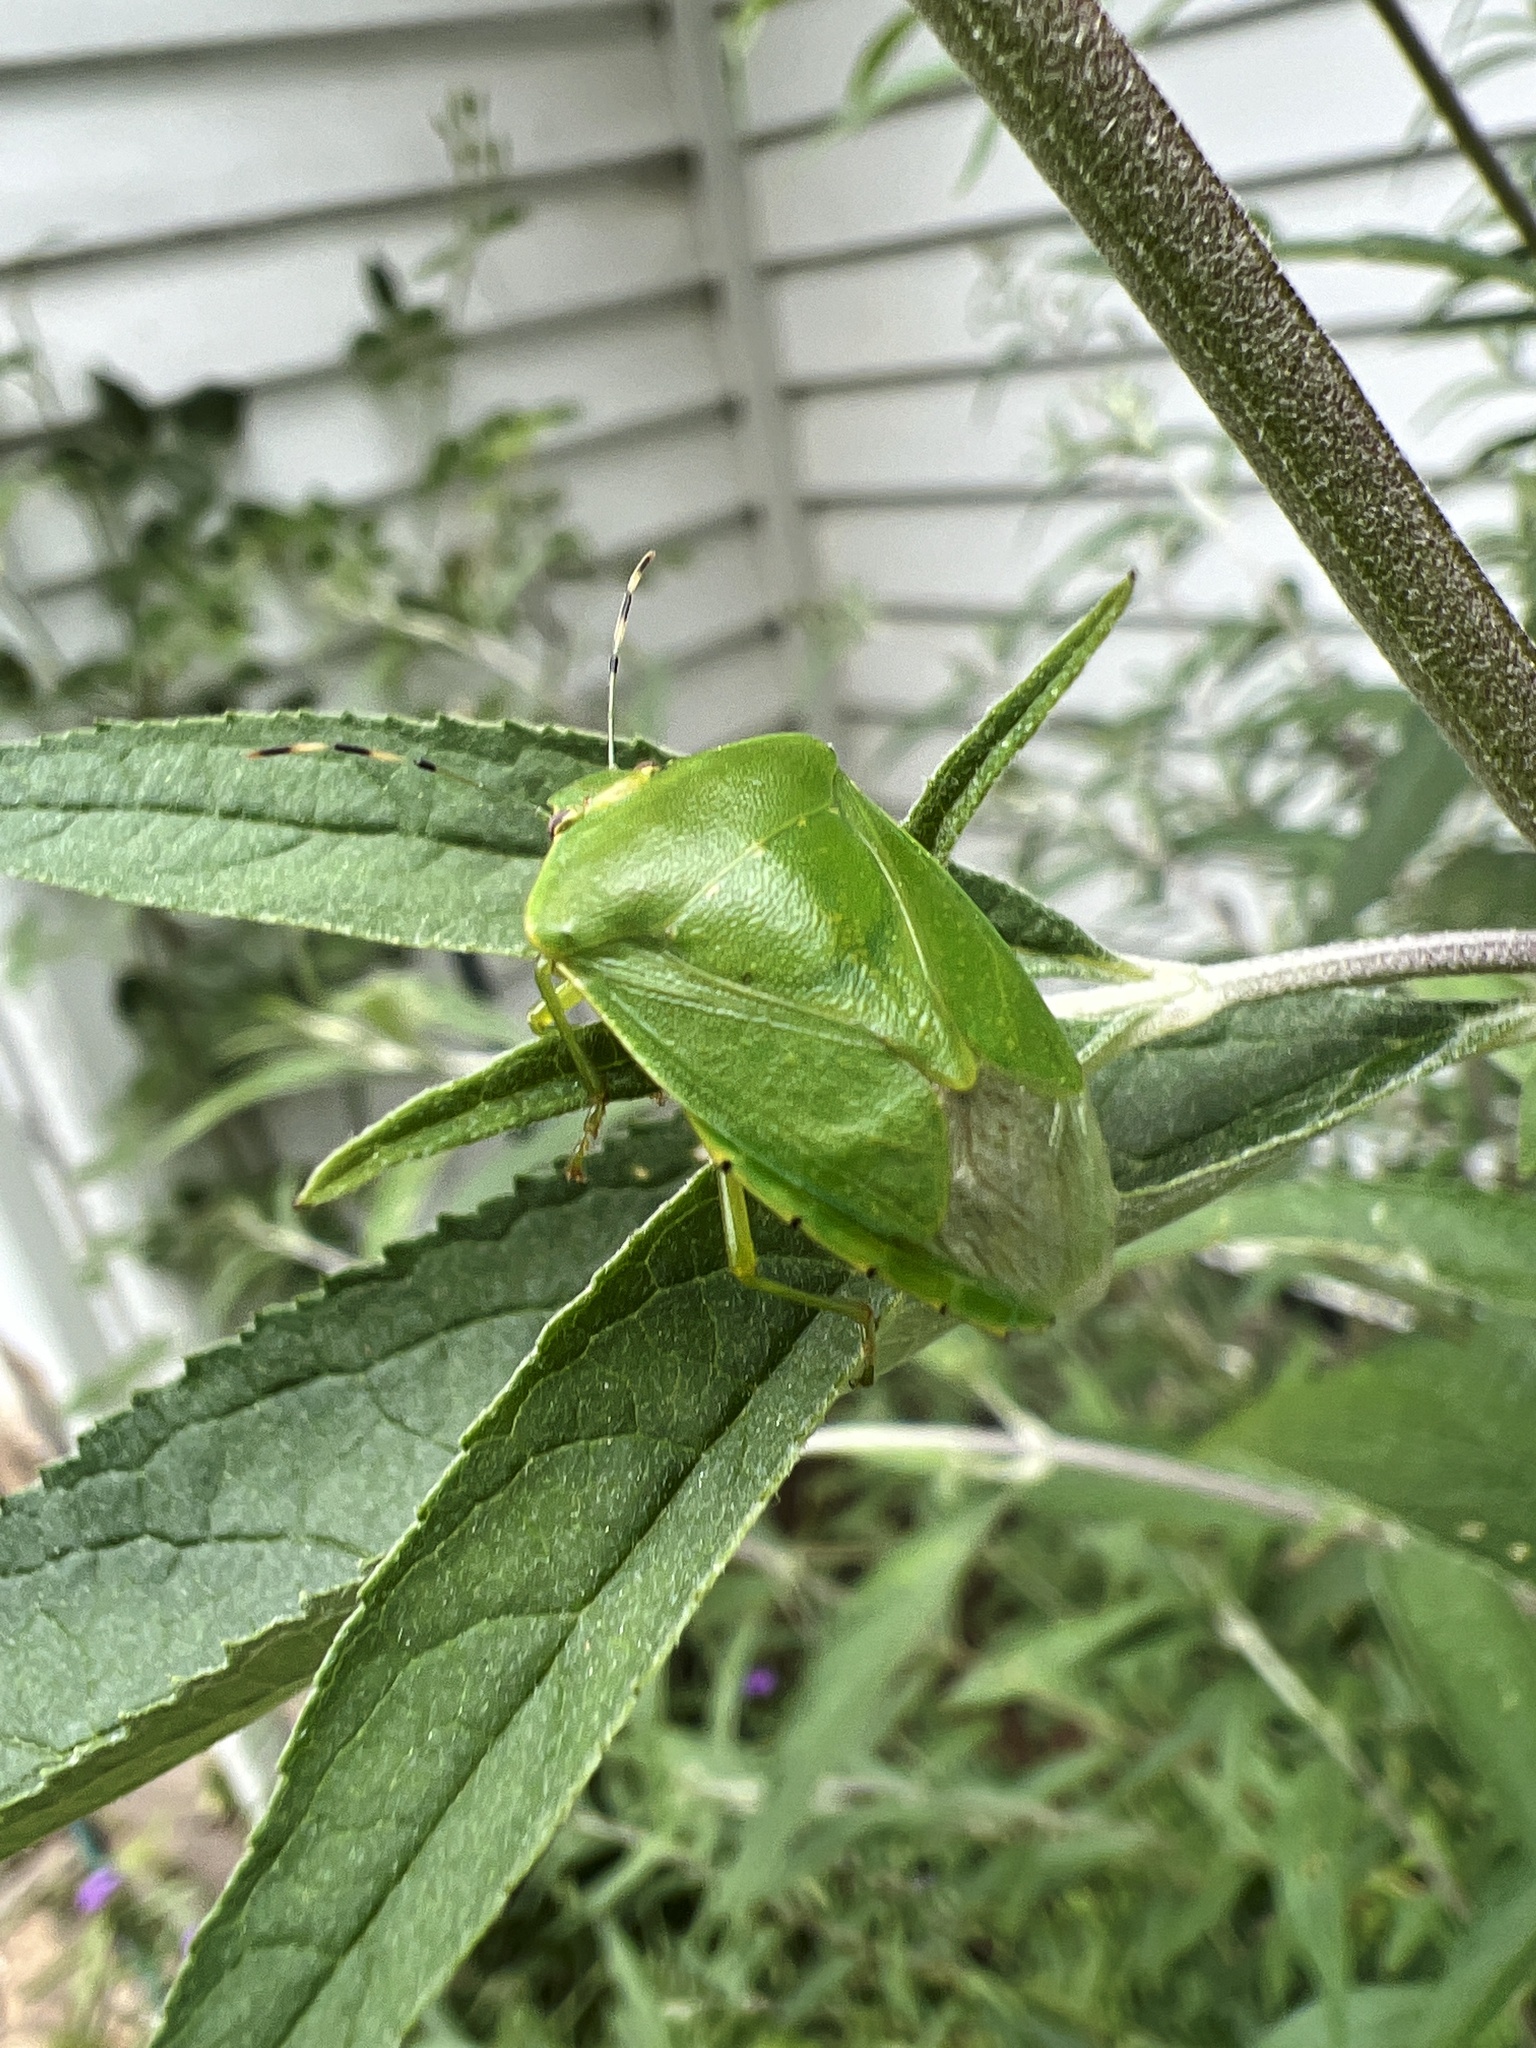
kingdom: Animalia
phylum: Arthropoda
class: Insecta
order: Hemiptera
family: Pentatomidae
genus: Chinavia
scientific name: Chinavia hilaris
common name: Green stink bug
